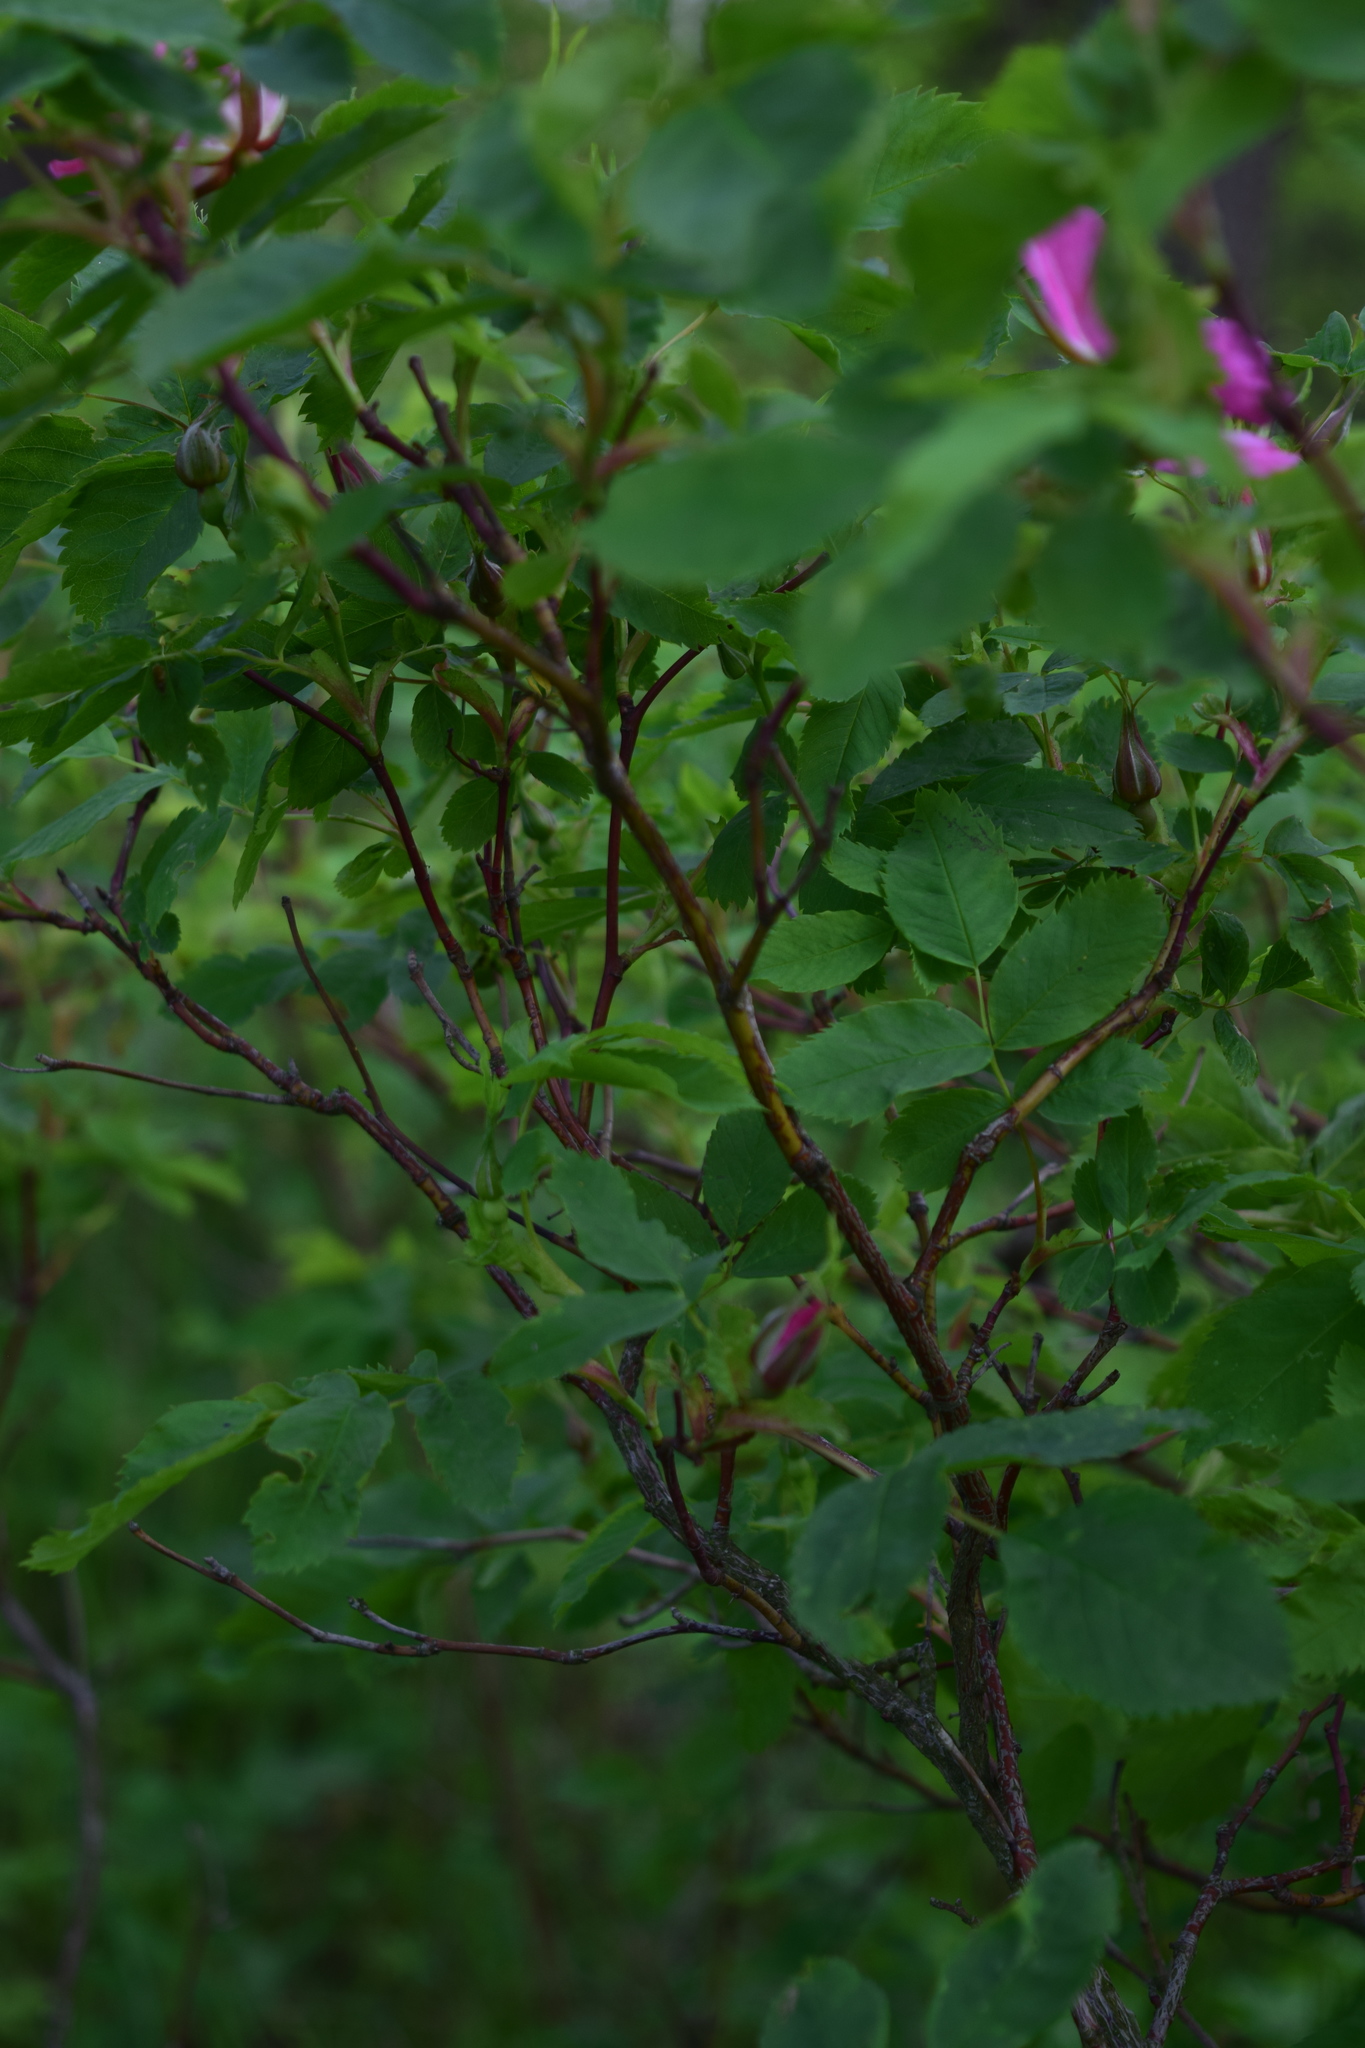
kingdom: Plantae
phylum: Tracheophyta
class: Magnoliopsida
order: Rosales
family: Rosaceae
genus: Rosa
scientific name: Rosa
